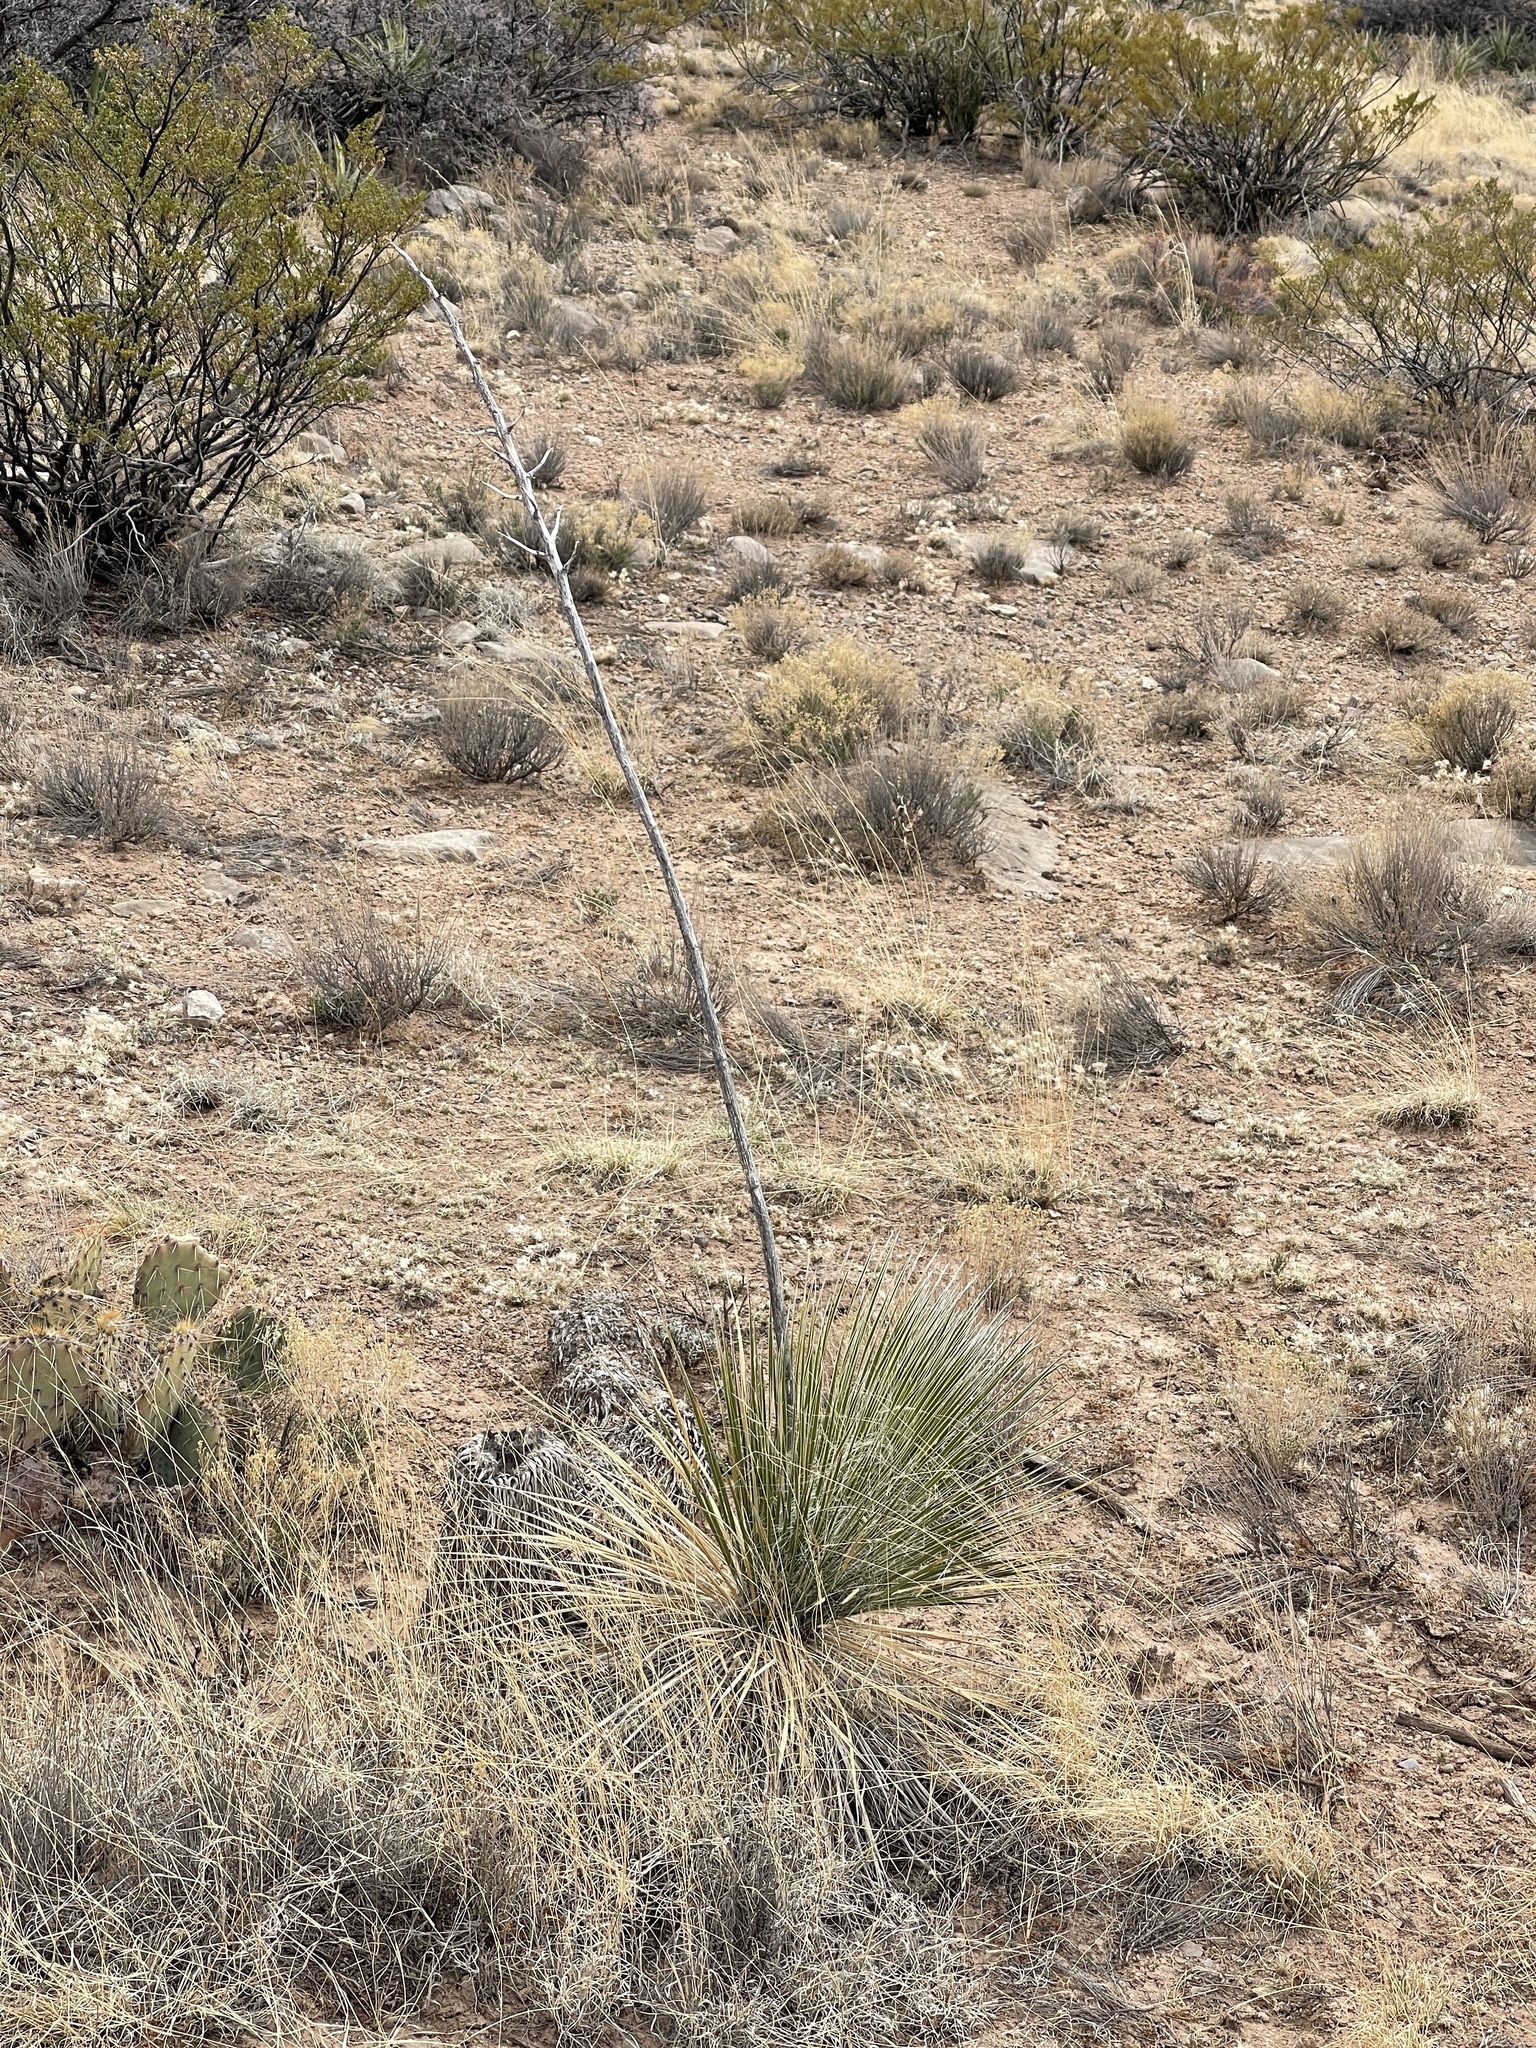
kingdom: Plantae
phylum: Tracheophyta
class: Liliopsida
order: Asparagales
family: Asparagaceae
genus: Yucca
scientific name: Yucca elata
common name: Palmella
